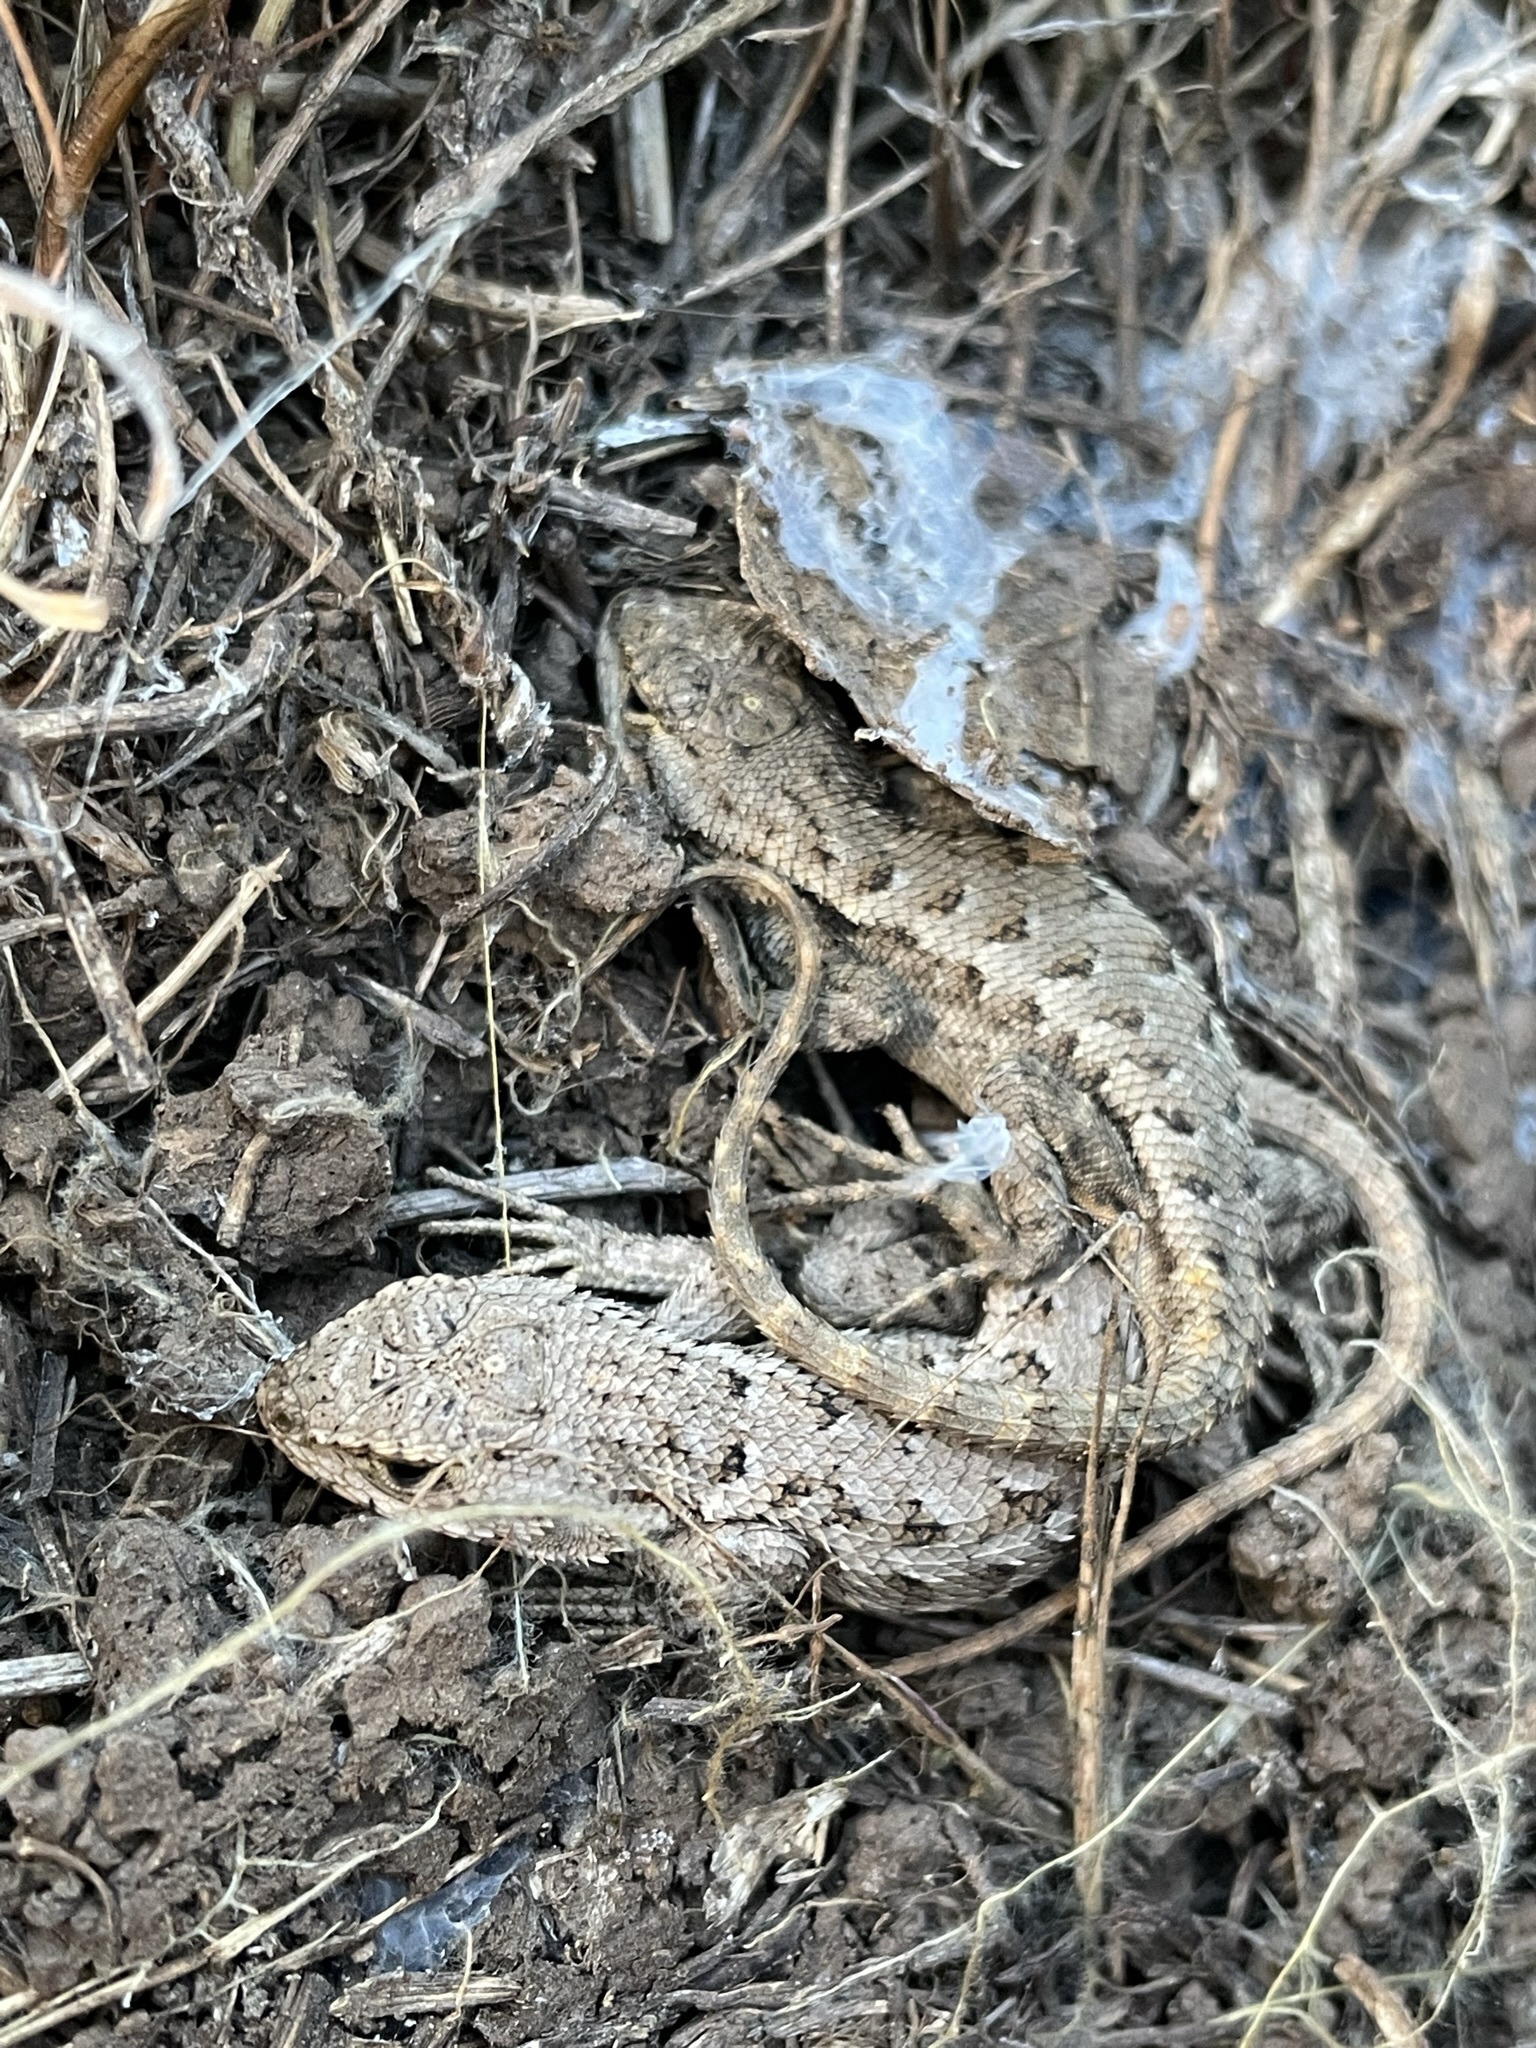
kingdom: Animalia
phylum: Chordata
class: Squamata
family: Phrynosomatidae
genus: Sceloporus
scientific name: Sceloporus occidentalis
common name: Western fence lizard
